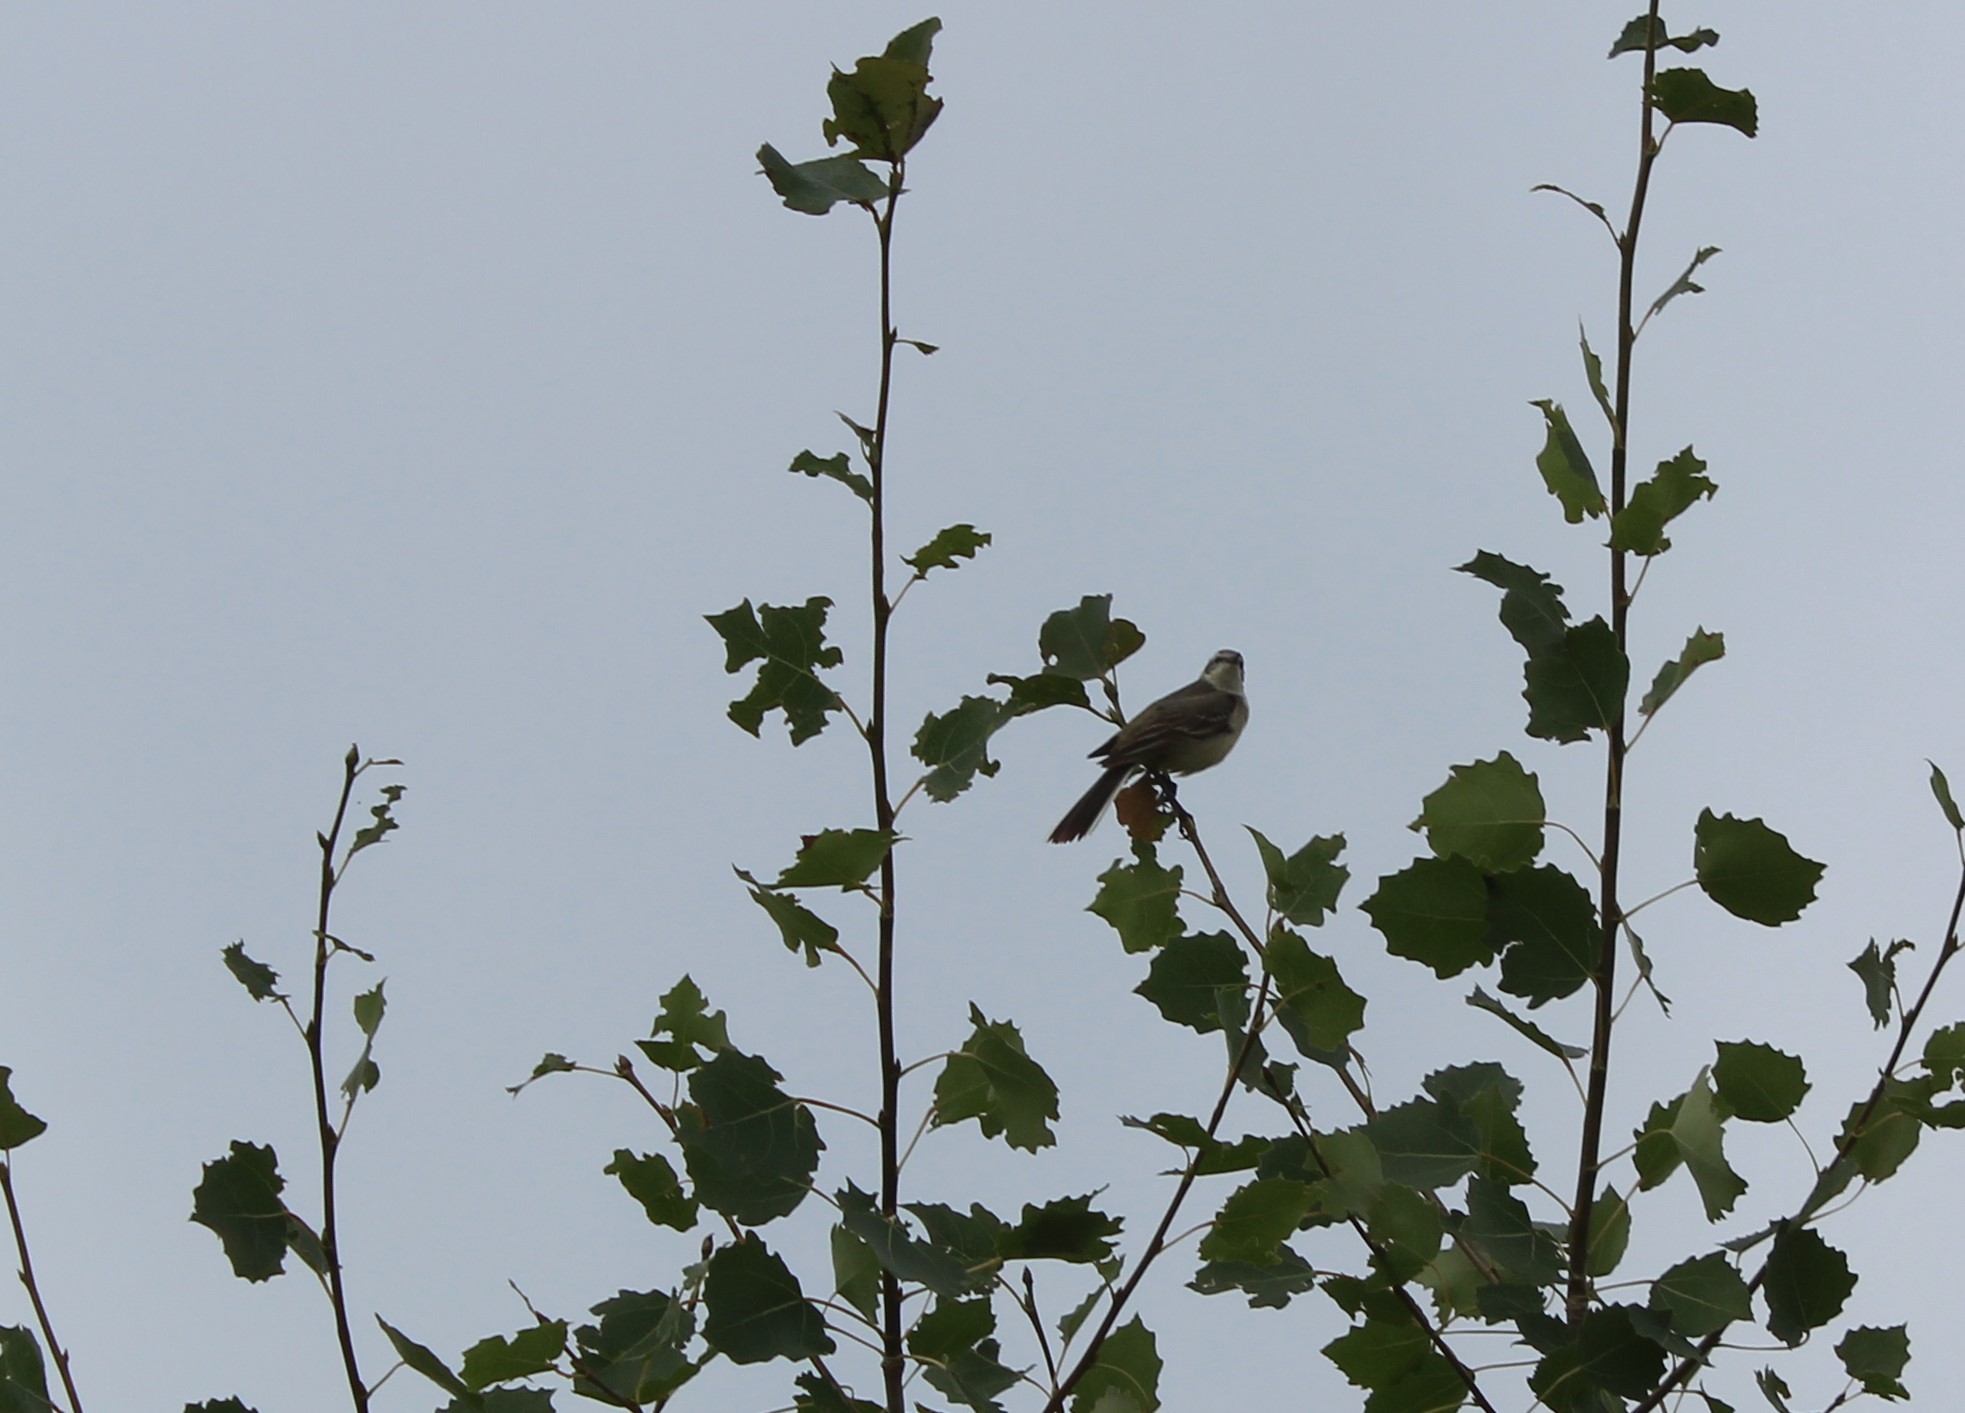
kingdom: Animalia
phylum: Chordata
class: Aves
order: Passeriformes
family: Motacillidae
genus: Motacilla
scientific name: Motacilla flava
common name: Western yellow wagtail
